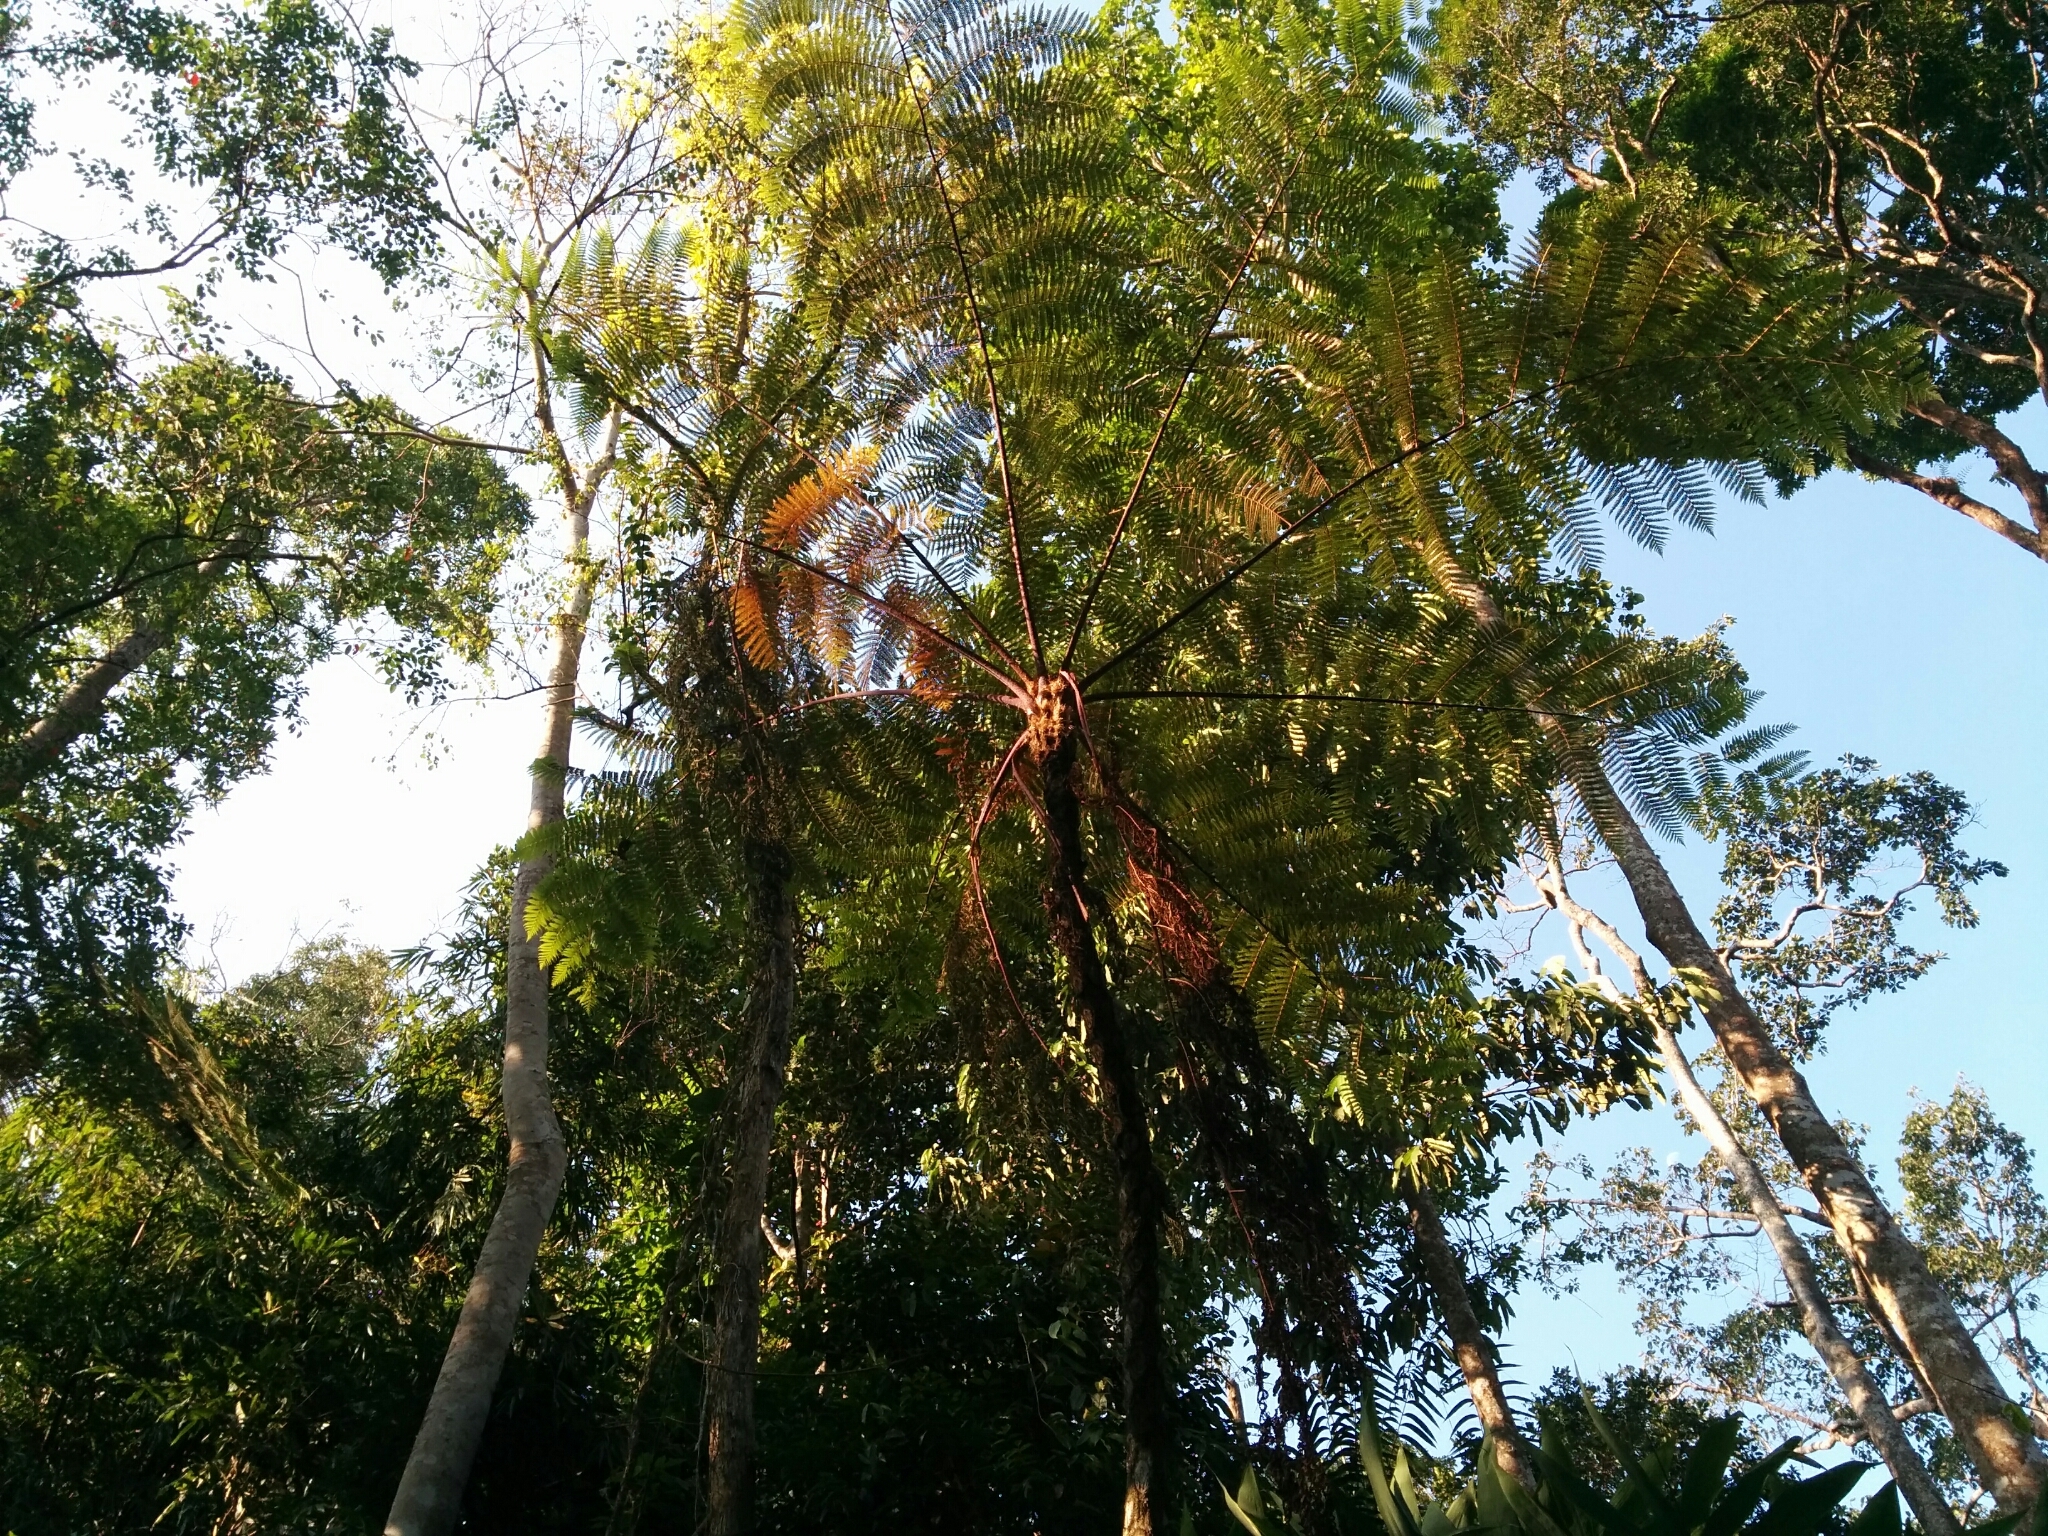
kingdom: Plantae
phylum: Tracheophyta
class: Polypodiopsida
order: Cyatheales
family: Cyatheaceae
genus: Gymnosphaera
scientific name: Gymnosphaera gigantea
